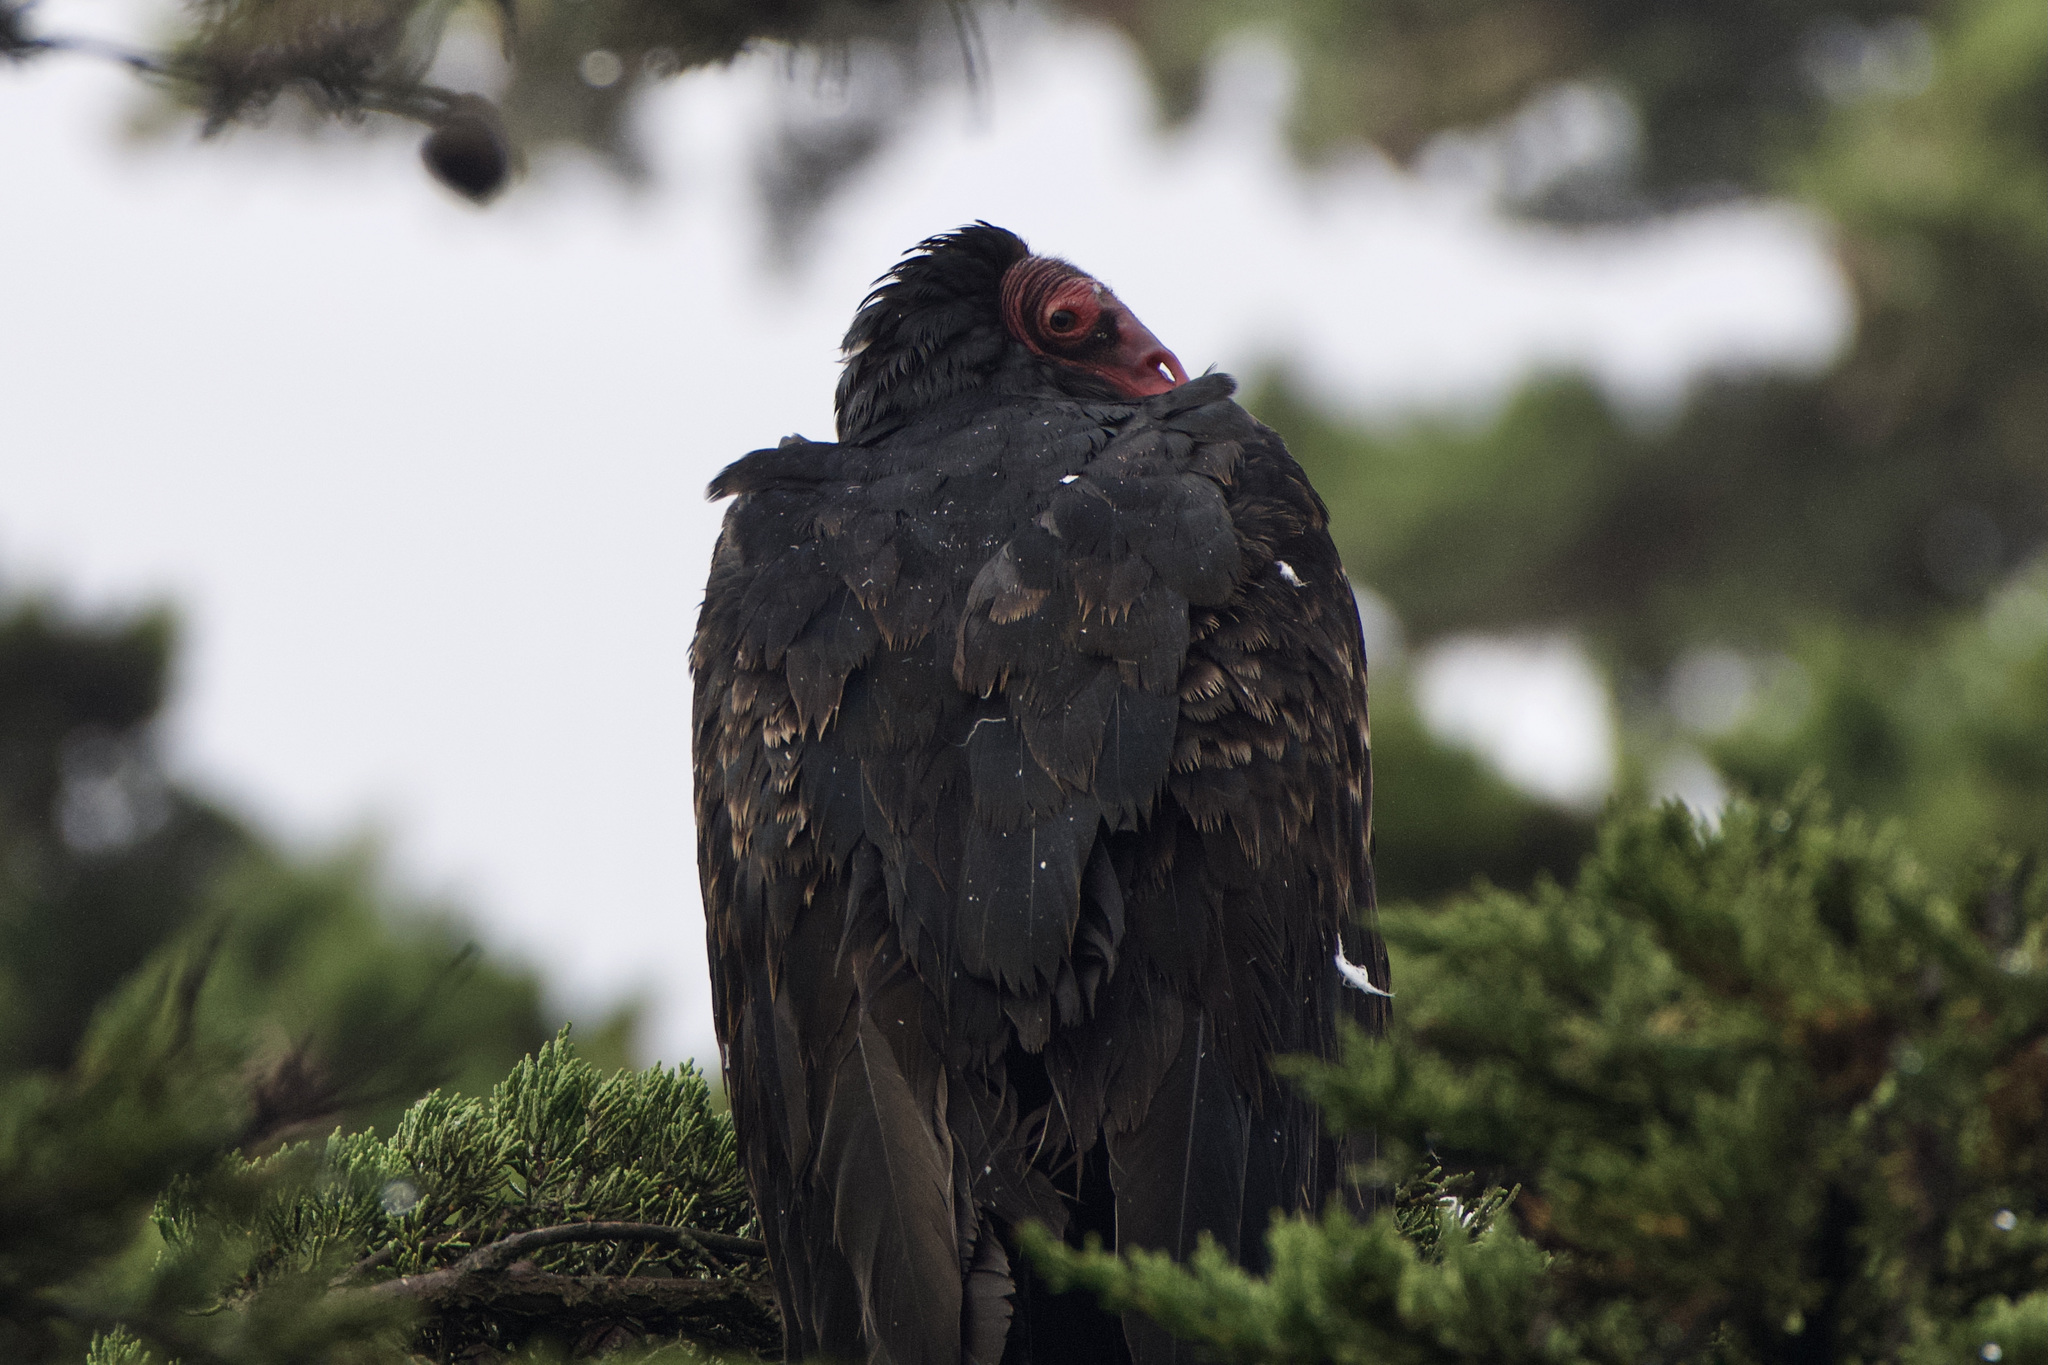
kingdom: Animalia
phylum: Chordata
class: Aves
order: Accipitriformes
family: Cathartidae
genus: Cathartes
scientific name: Cathartes aura
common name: Turkey vulture
